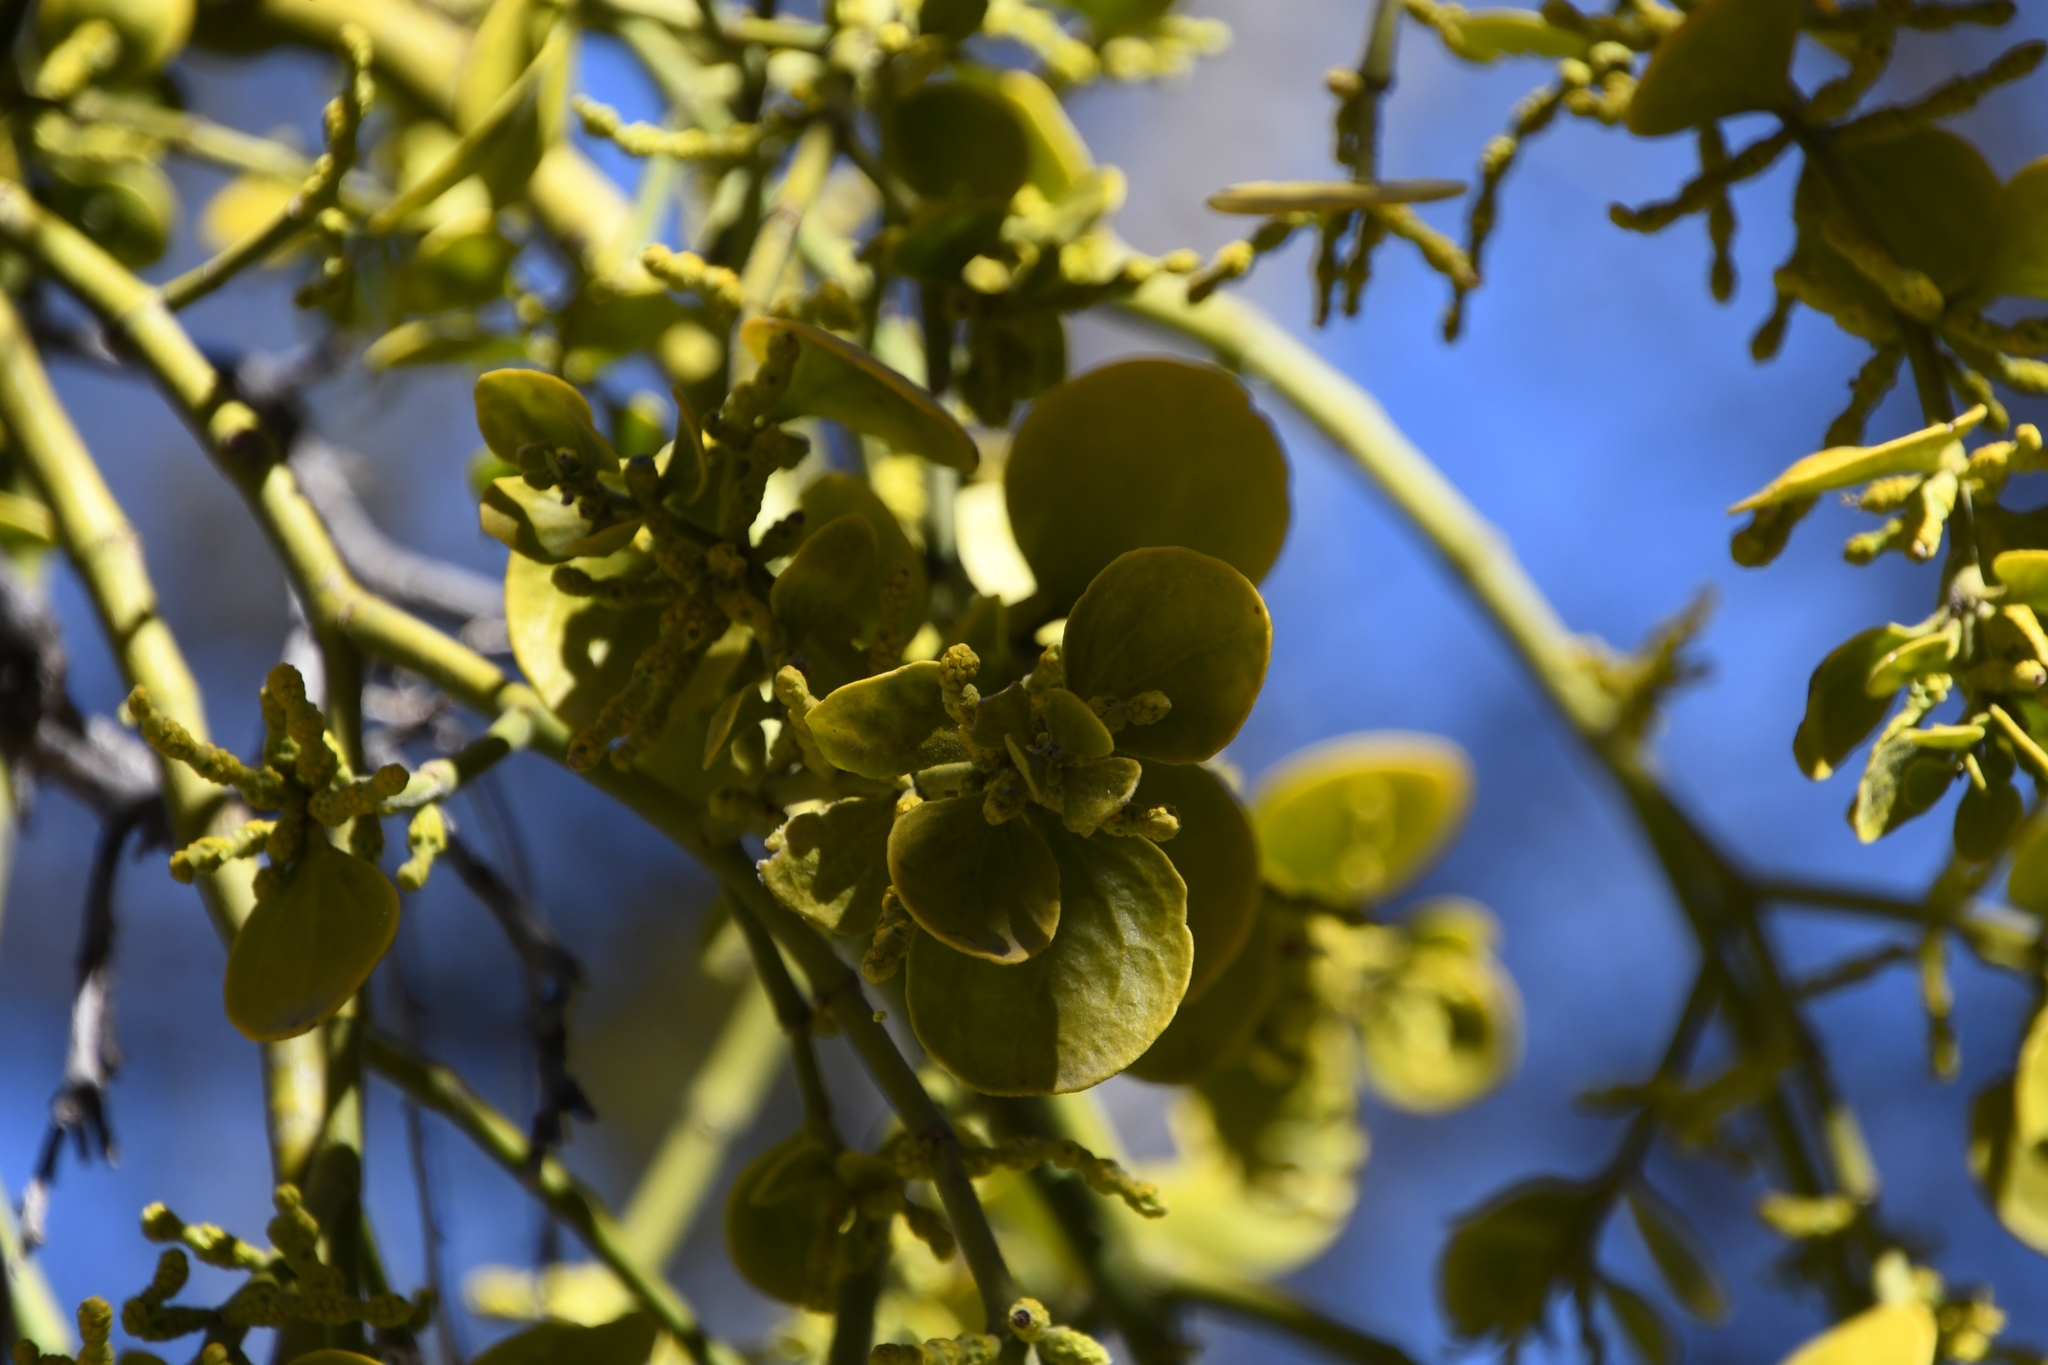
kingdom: Plantae
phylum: Tracheophyta
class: Magnoliopsida
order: Santalales
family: Viscaceae
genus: Phoradendron
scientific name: Phoradendron
